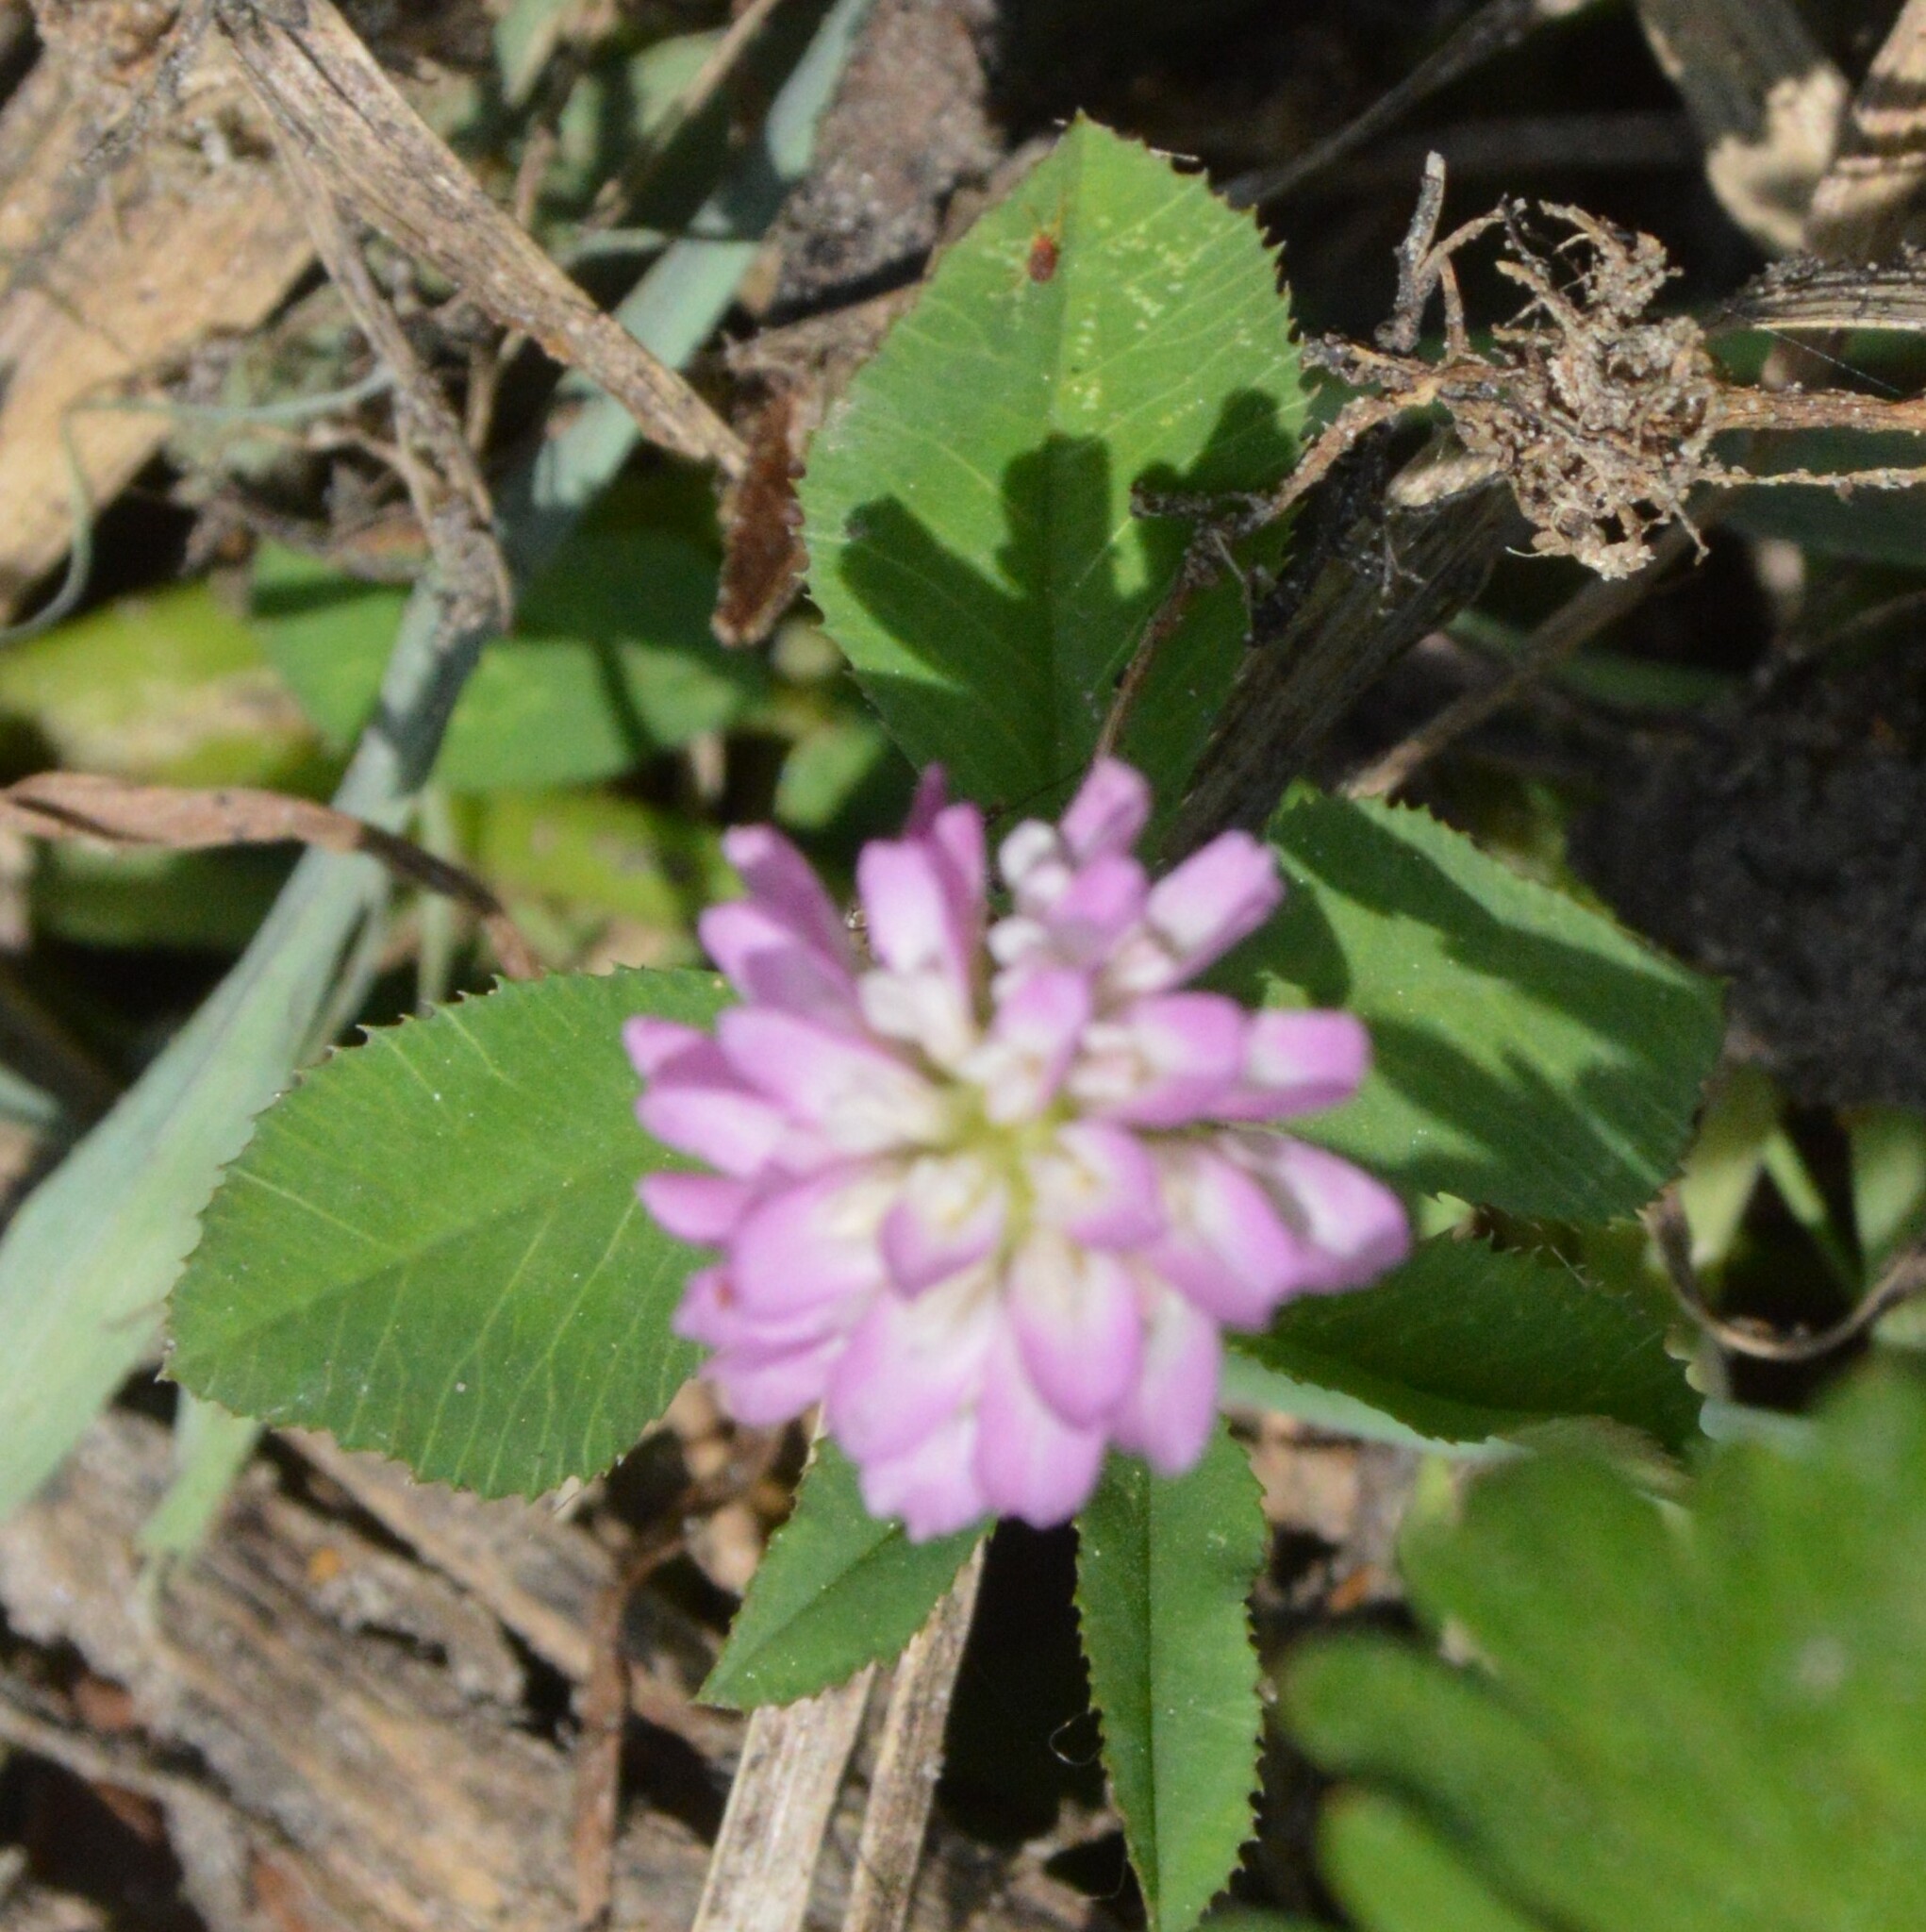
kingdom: Plantae
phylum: Tracheophyta
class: Magnoliopsida
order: Fabales
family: Fabaceae
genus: Trifolium
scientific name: Trifolium resupinatum
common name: Reversed clover
